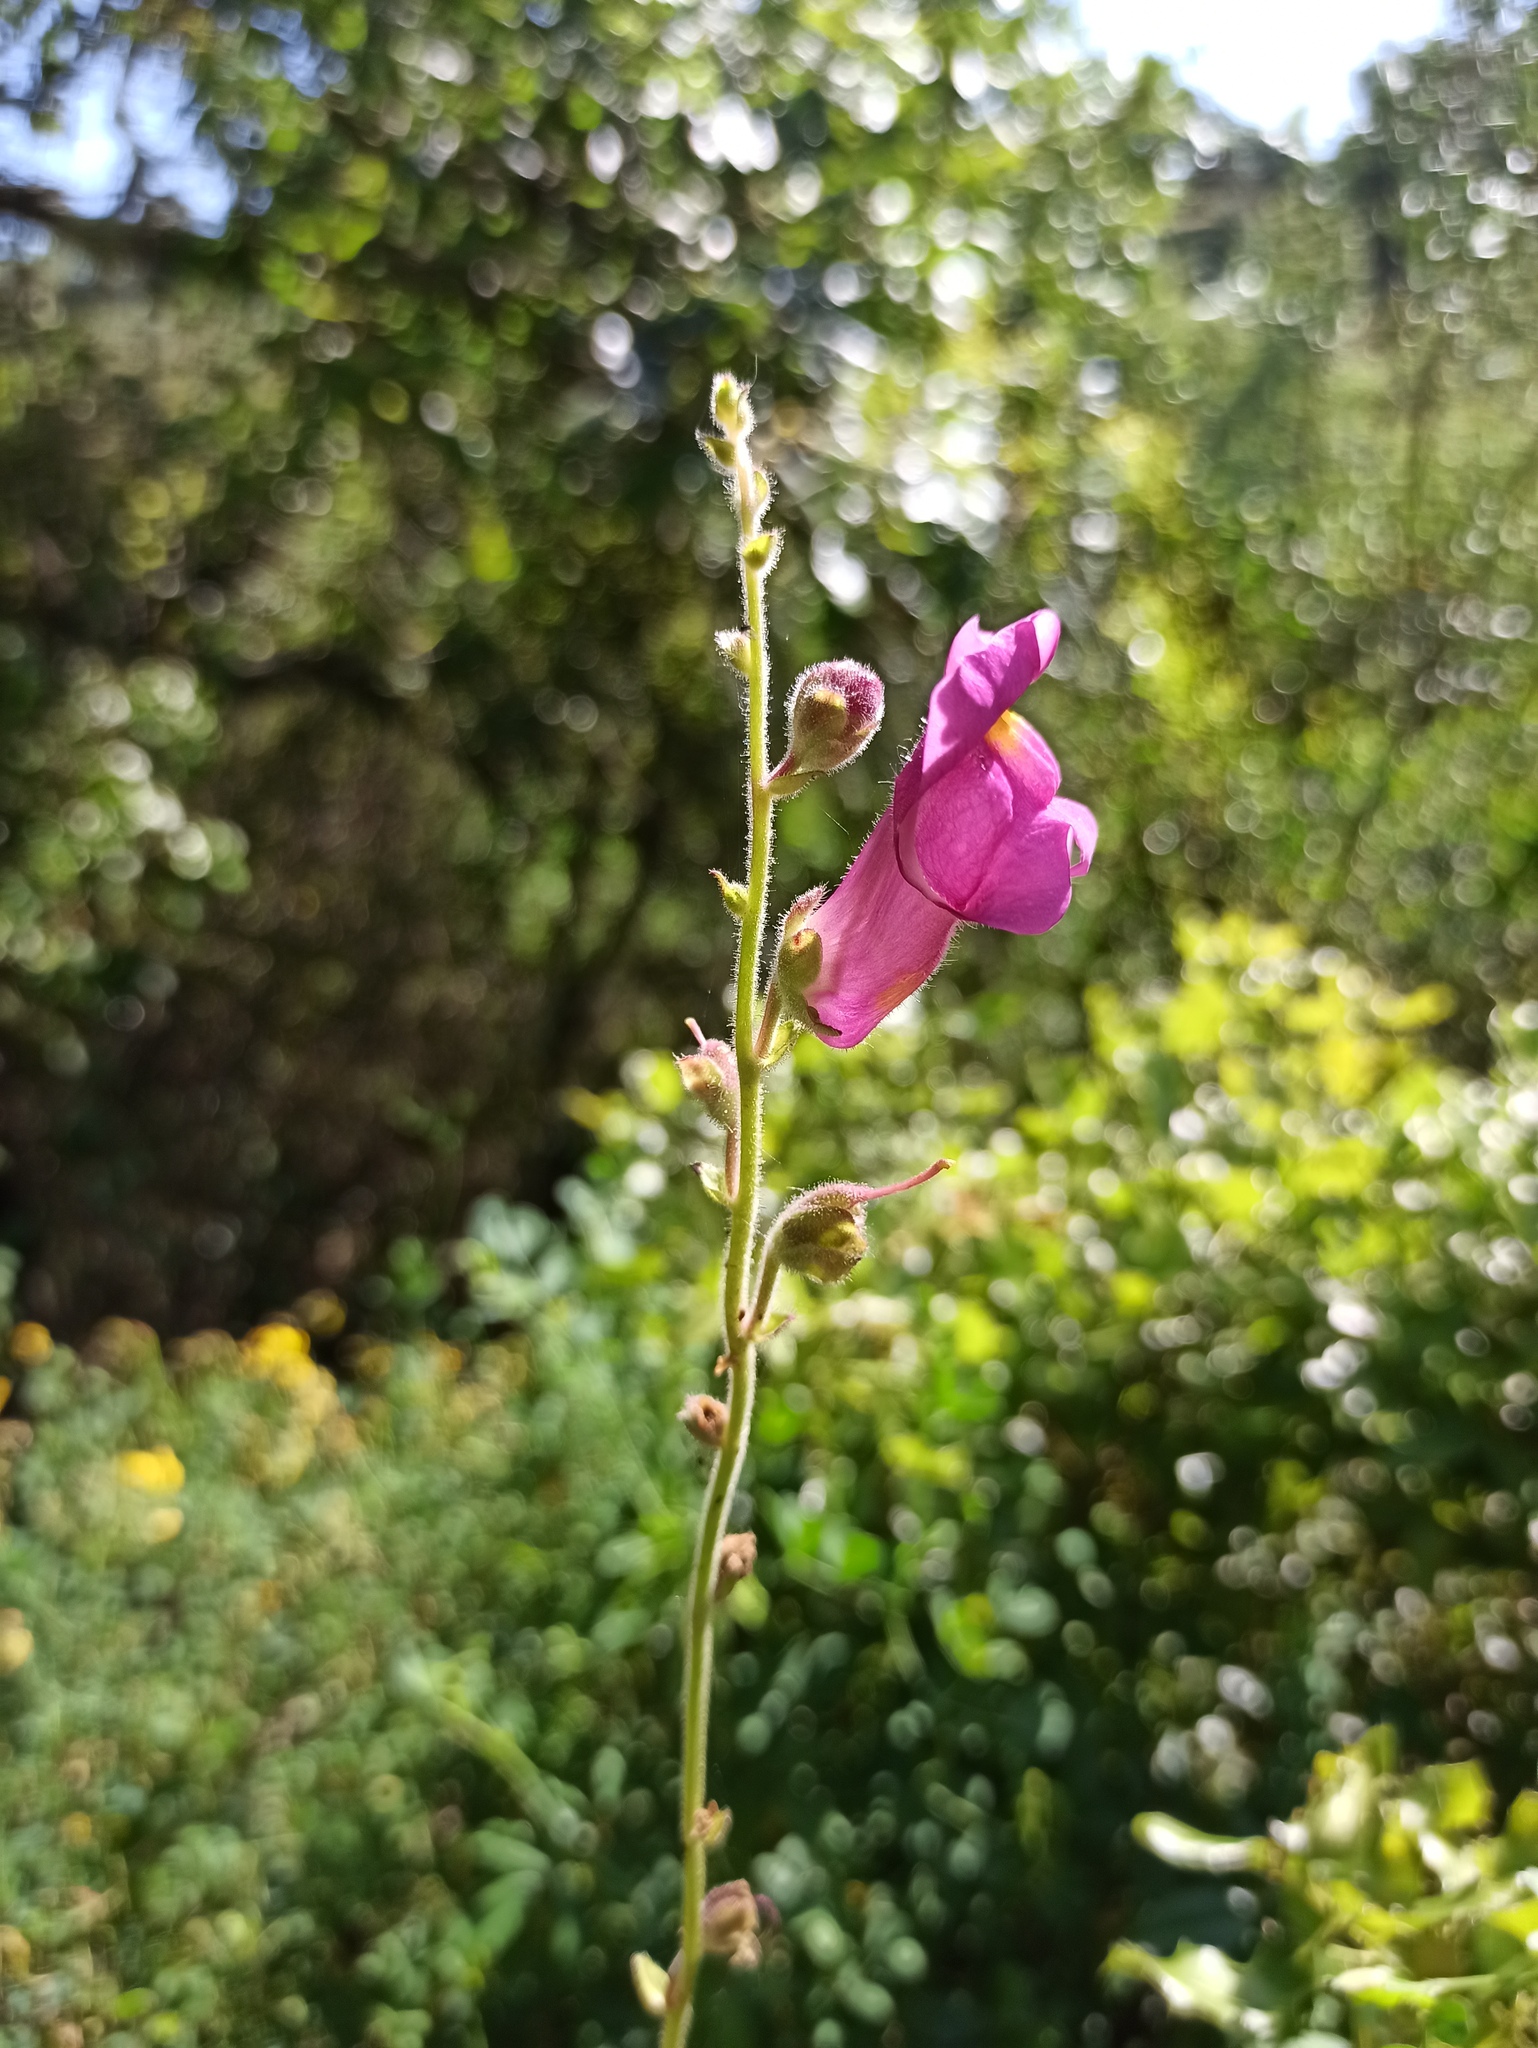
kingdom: Plantae
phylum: Tracheophyta
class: Magnoliopsida
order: Lamiales
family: Plantaginaceae
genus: Antirrhinum
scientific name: Antirrhinum linkianum
